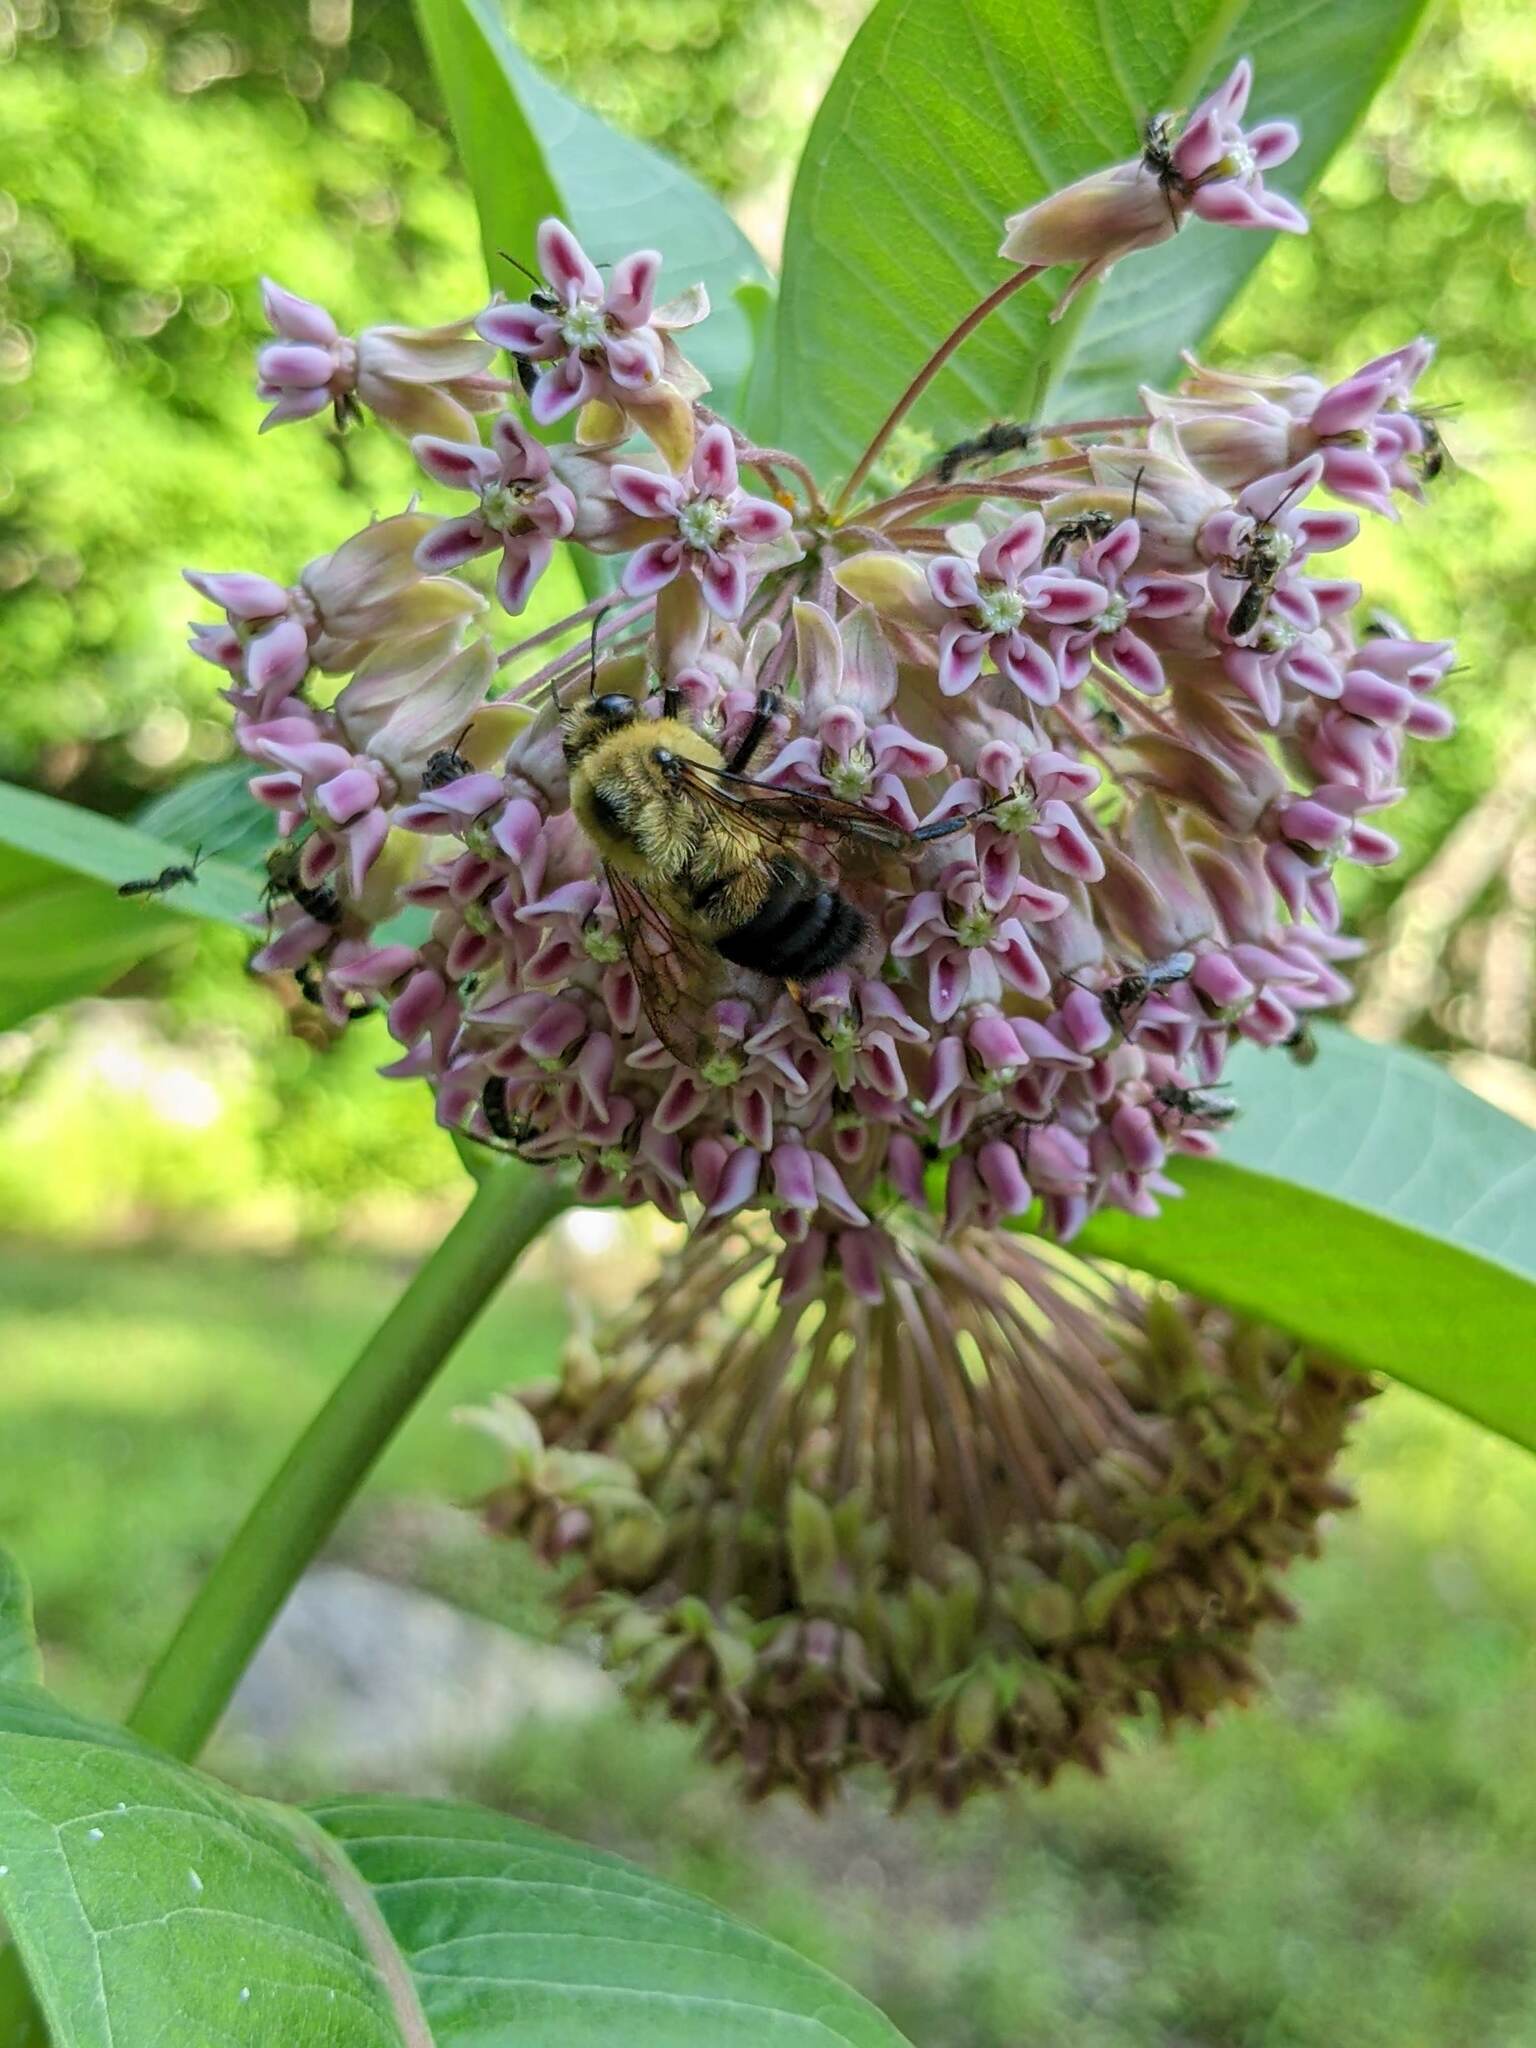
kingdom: Animalia
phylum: Arthropoda
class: Insecta
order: Hymenoptera
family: Apidae
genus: Bombus
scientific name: Bombus griseocollis
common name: Brown-belted bumble bee
